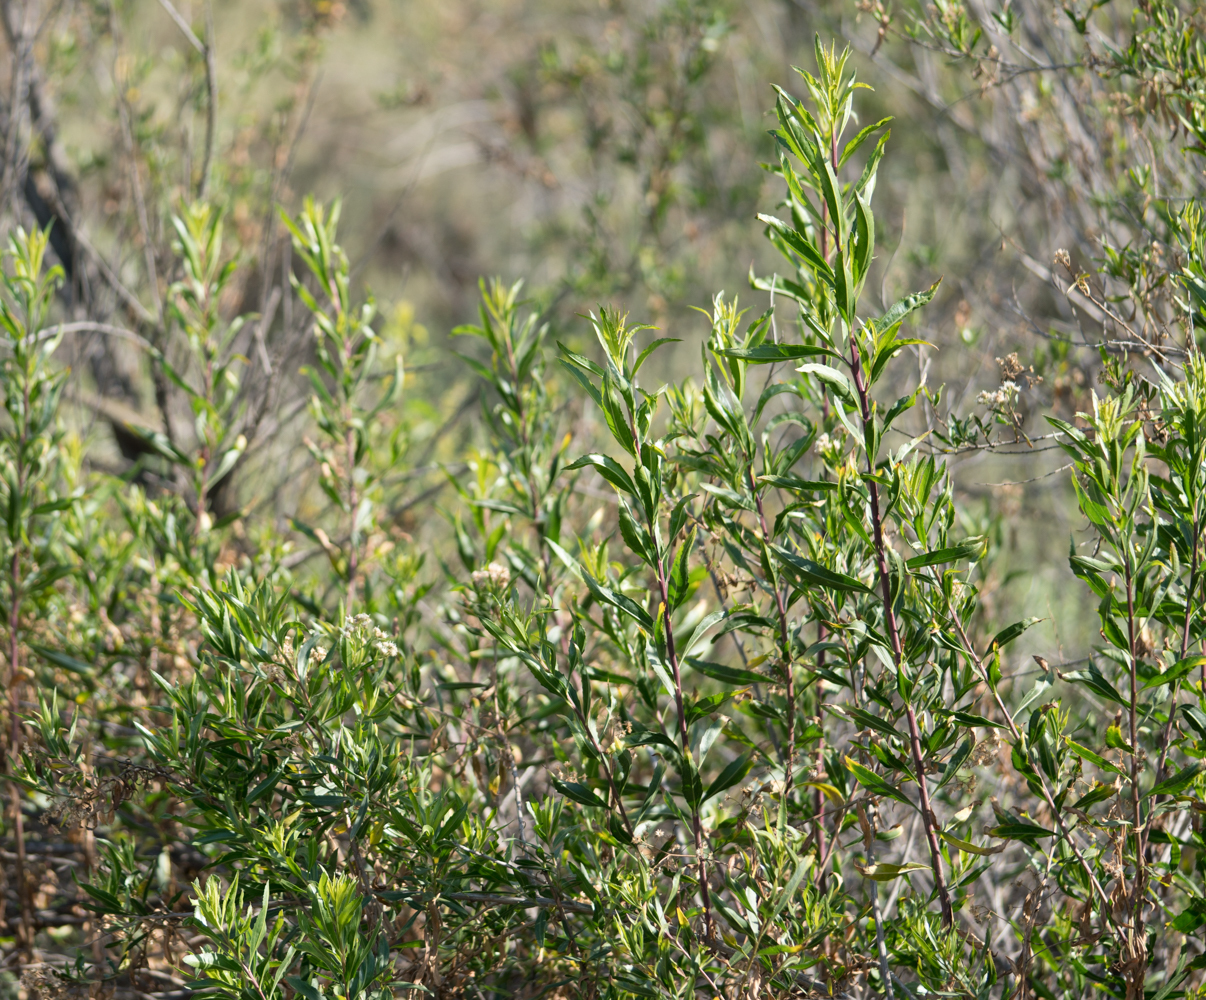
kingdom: Plantae
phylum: Tracheophyta
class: Magnoliopsida
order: Asterales
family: Asteraceae
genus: Baccharis
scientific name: Baccharis salicifolia
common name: Sticky baccharis
